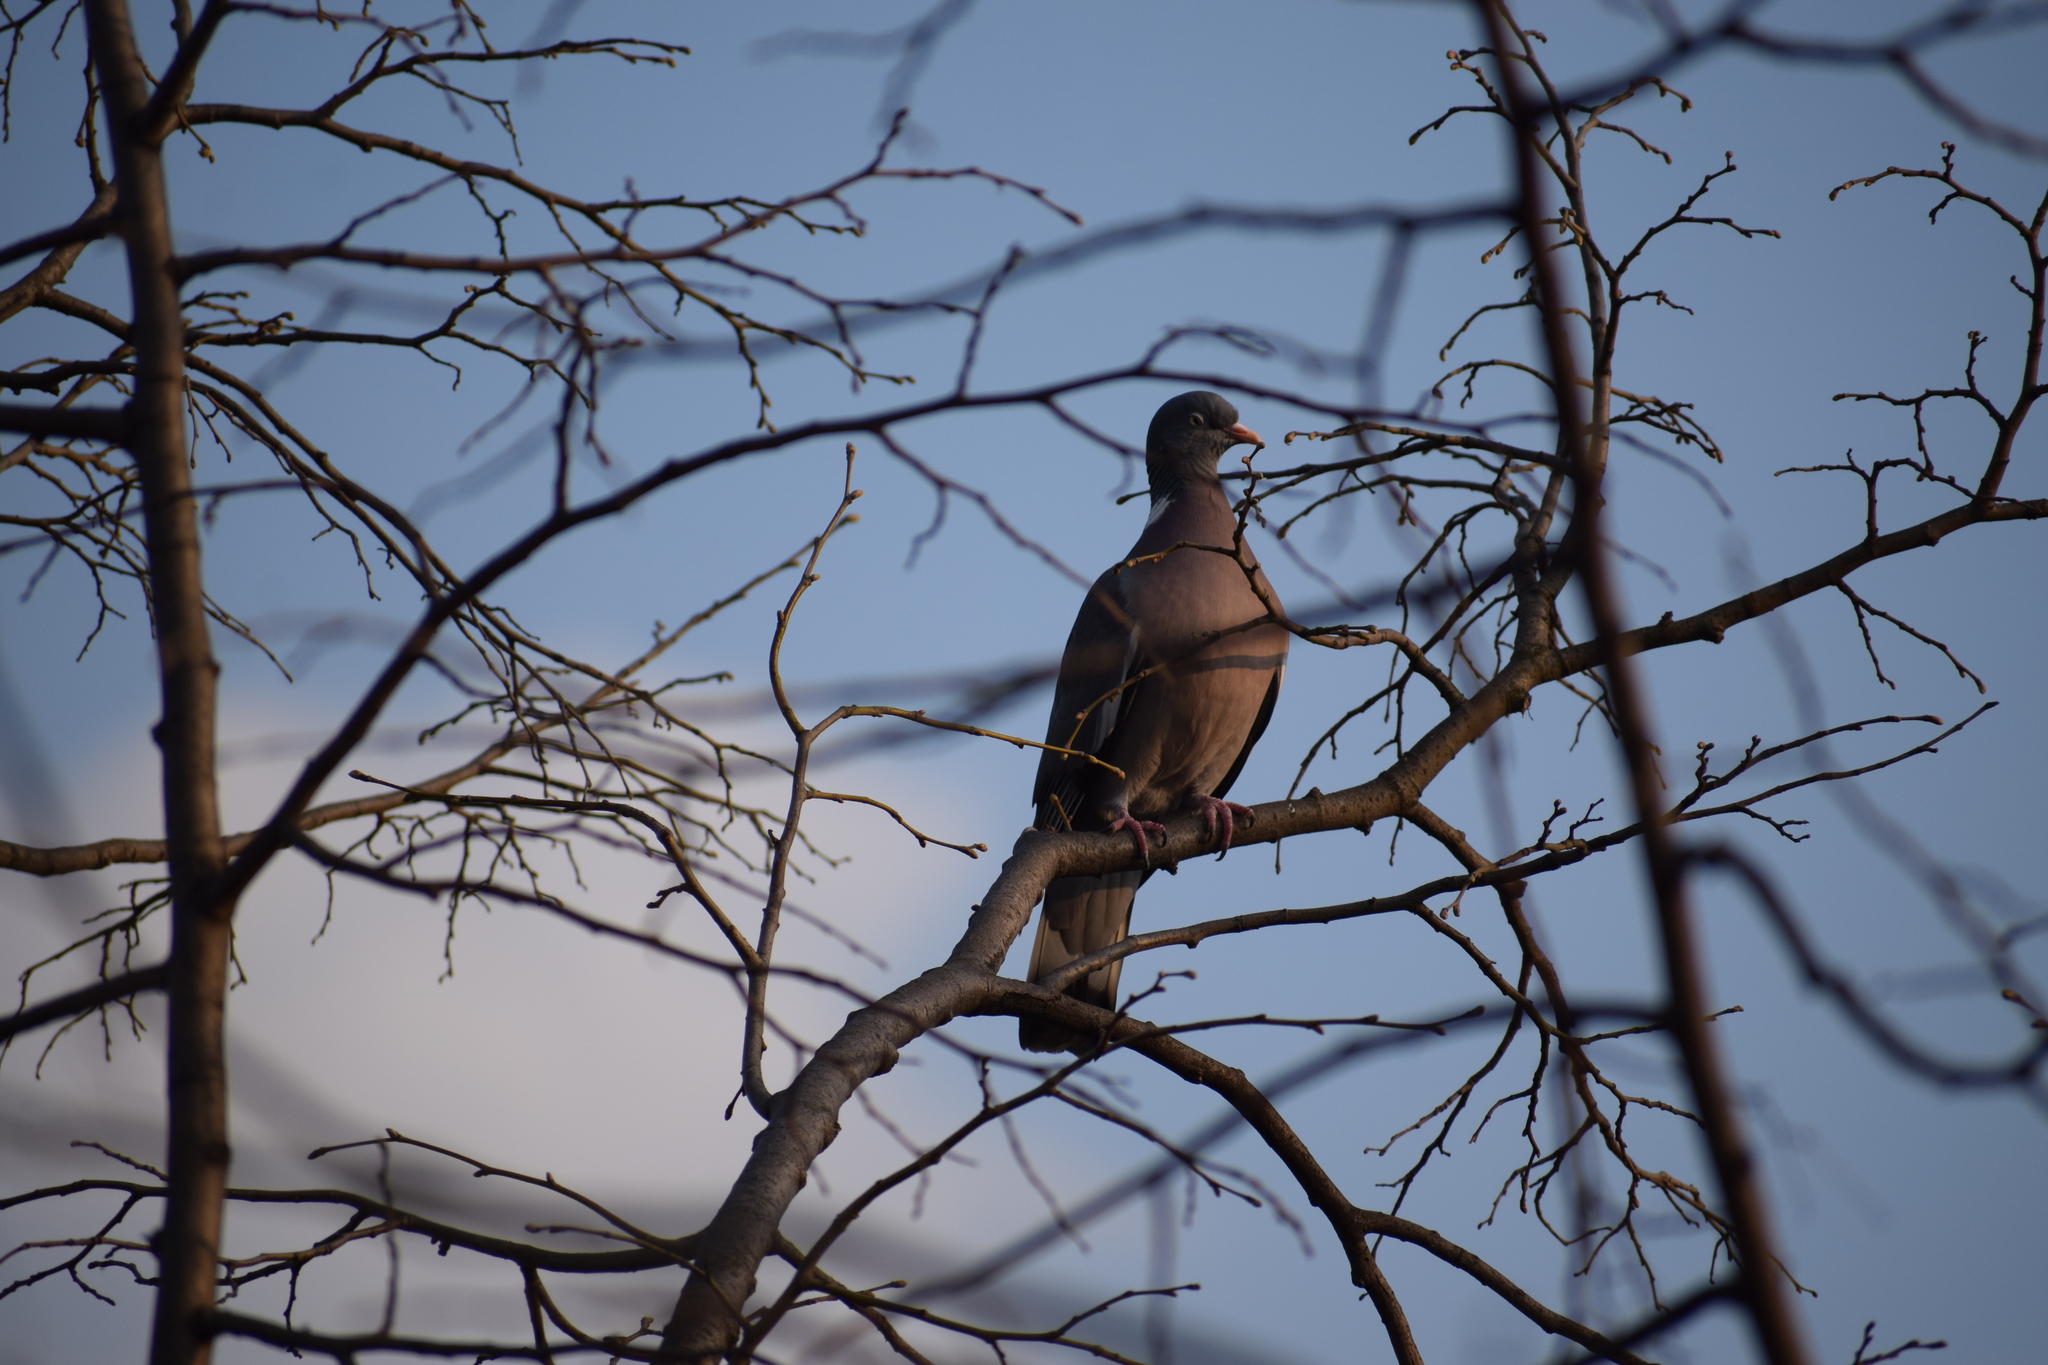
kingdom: Animalia
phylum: Chordata
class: Aves
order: Columbiformes
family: Columbidae
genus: Columba
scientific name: Columba palumbus
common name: Common wood pigeon
